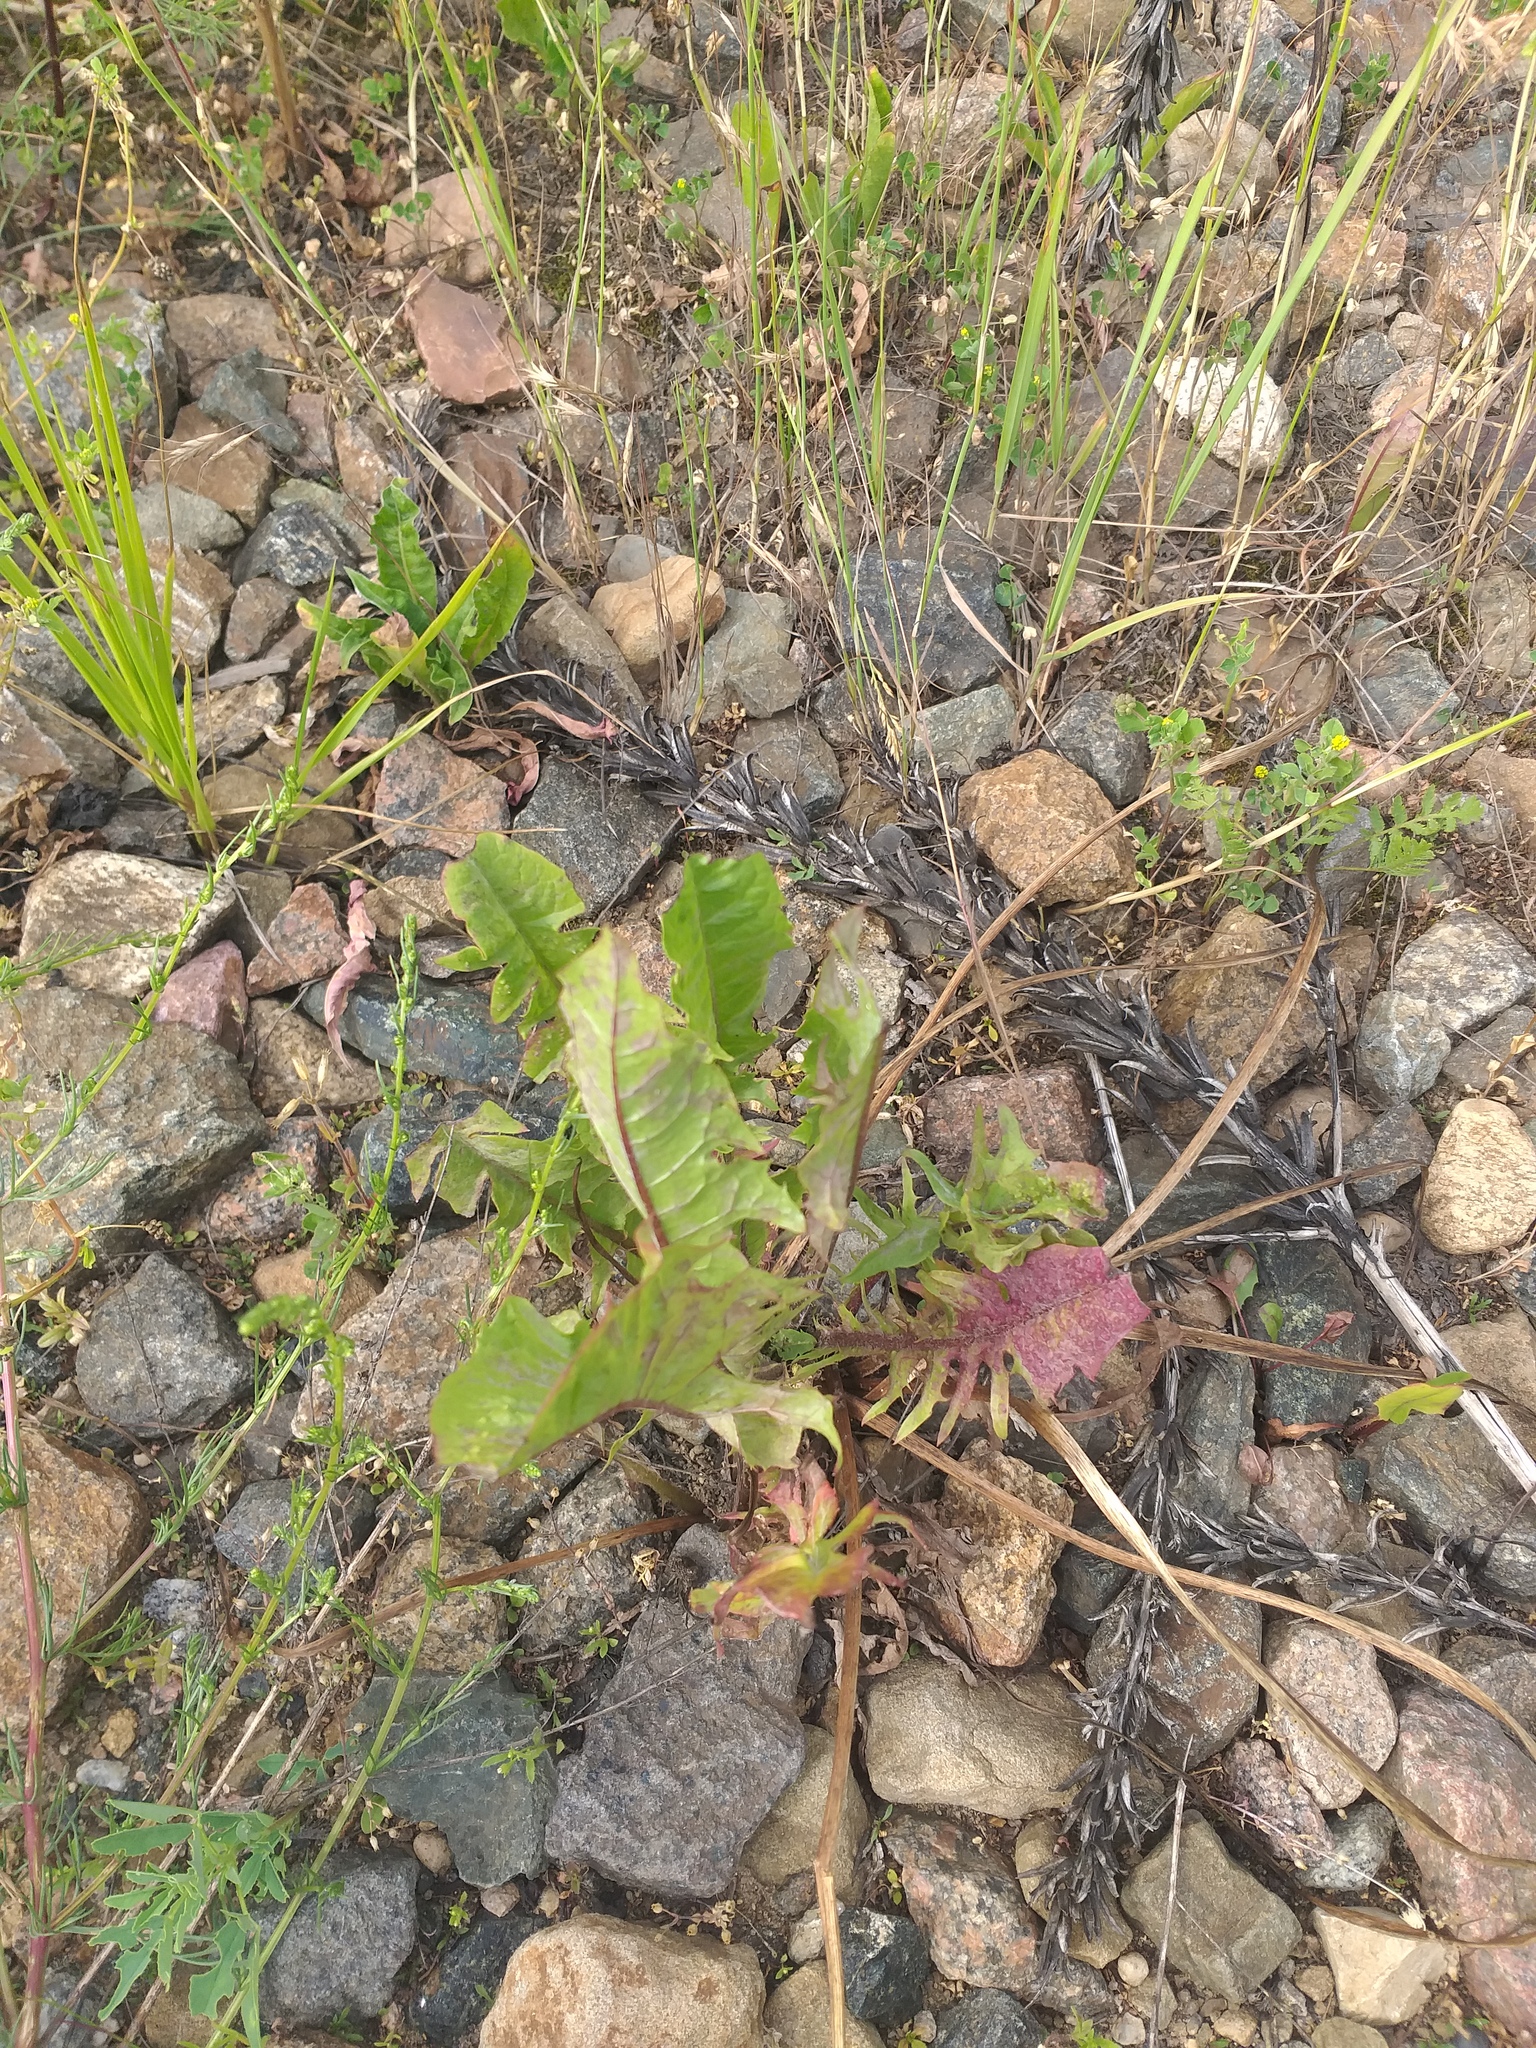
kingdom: Plantae
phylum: Tracheophyta
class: Magnoliopsida
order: Asterales
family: Asteraceae
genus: Taraxacum
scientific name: Taraxacum officinale
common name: Common dandelion
